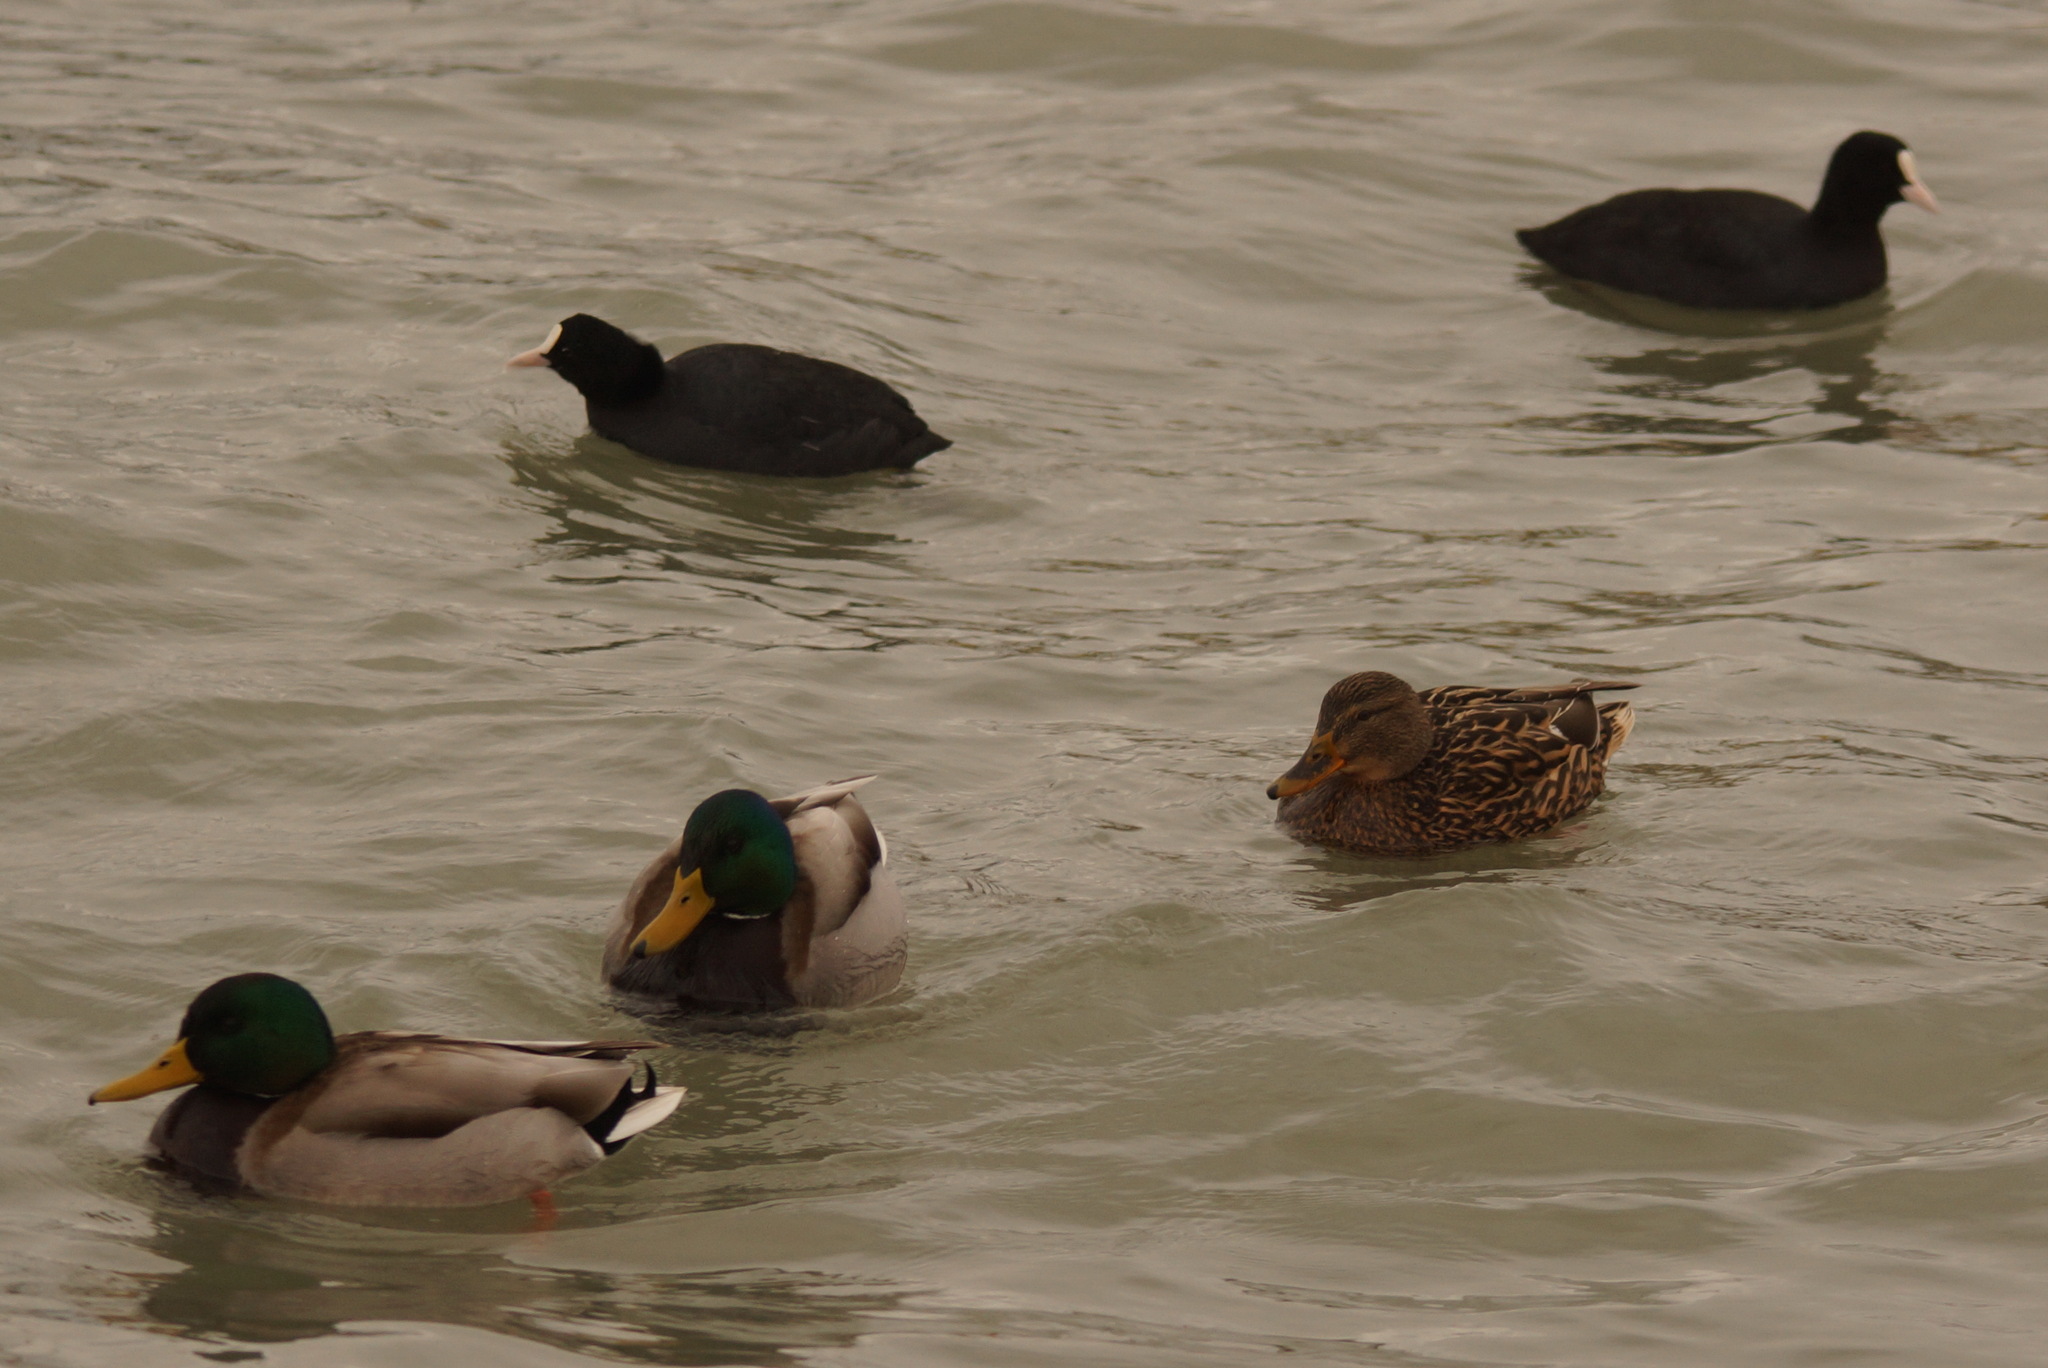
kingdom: Animalia
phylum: Chordata
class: Aves
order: Gruiformes
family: Rallidae
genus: Fulica
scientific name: Fulica atra
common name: Eurasian coot
